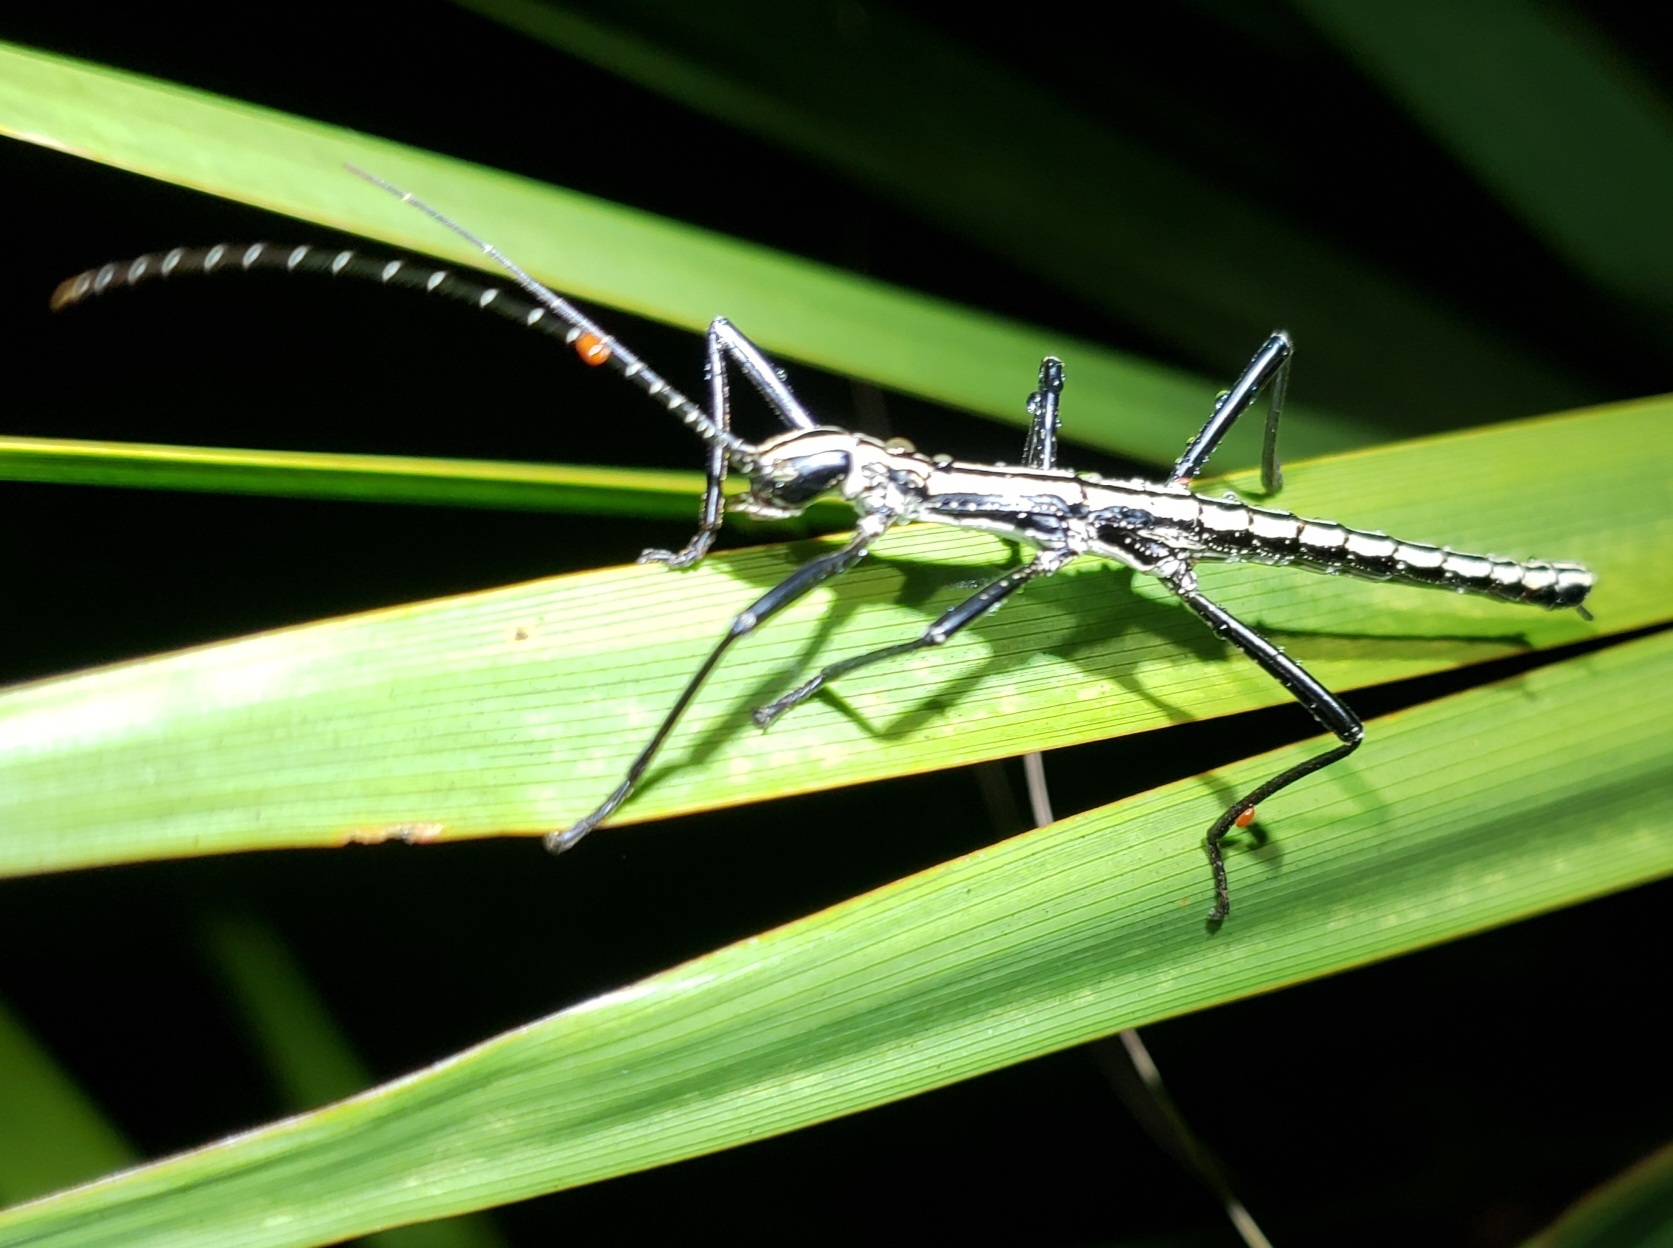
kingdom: Animalia
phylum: Arthropoda
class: Insecta
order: Phasmida
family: Pseudophasmatidae
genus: Anisomorpha
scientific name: Anisomorpha buprestoides
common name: Florida stick insect
